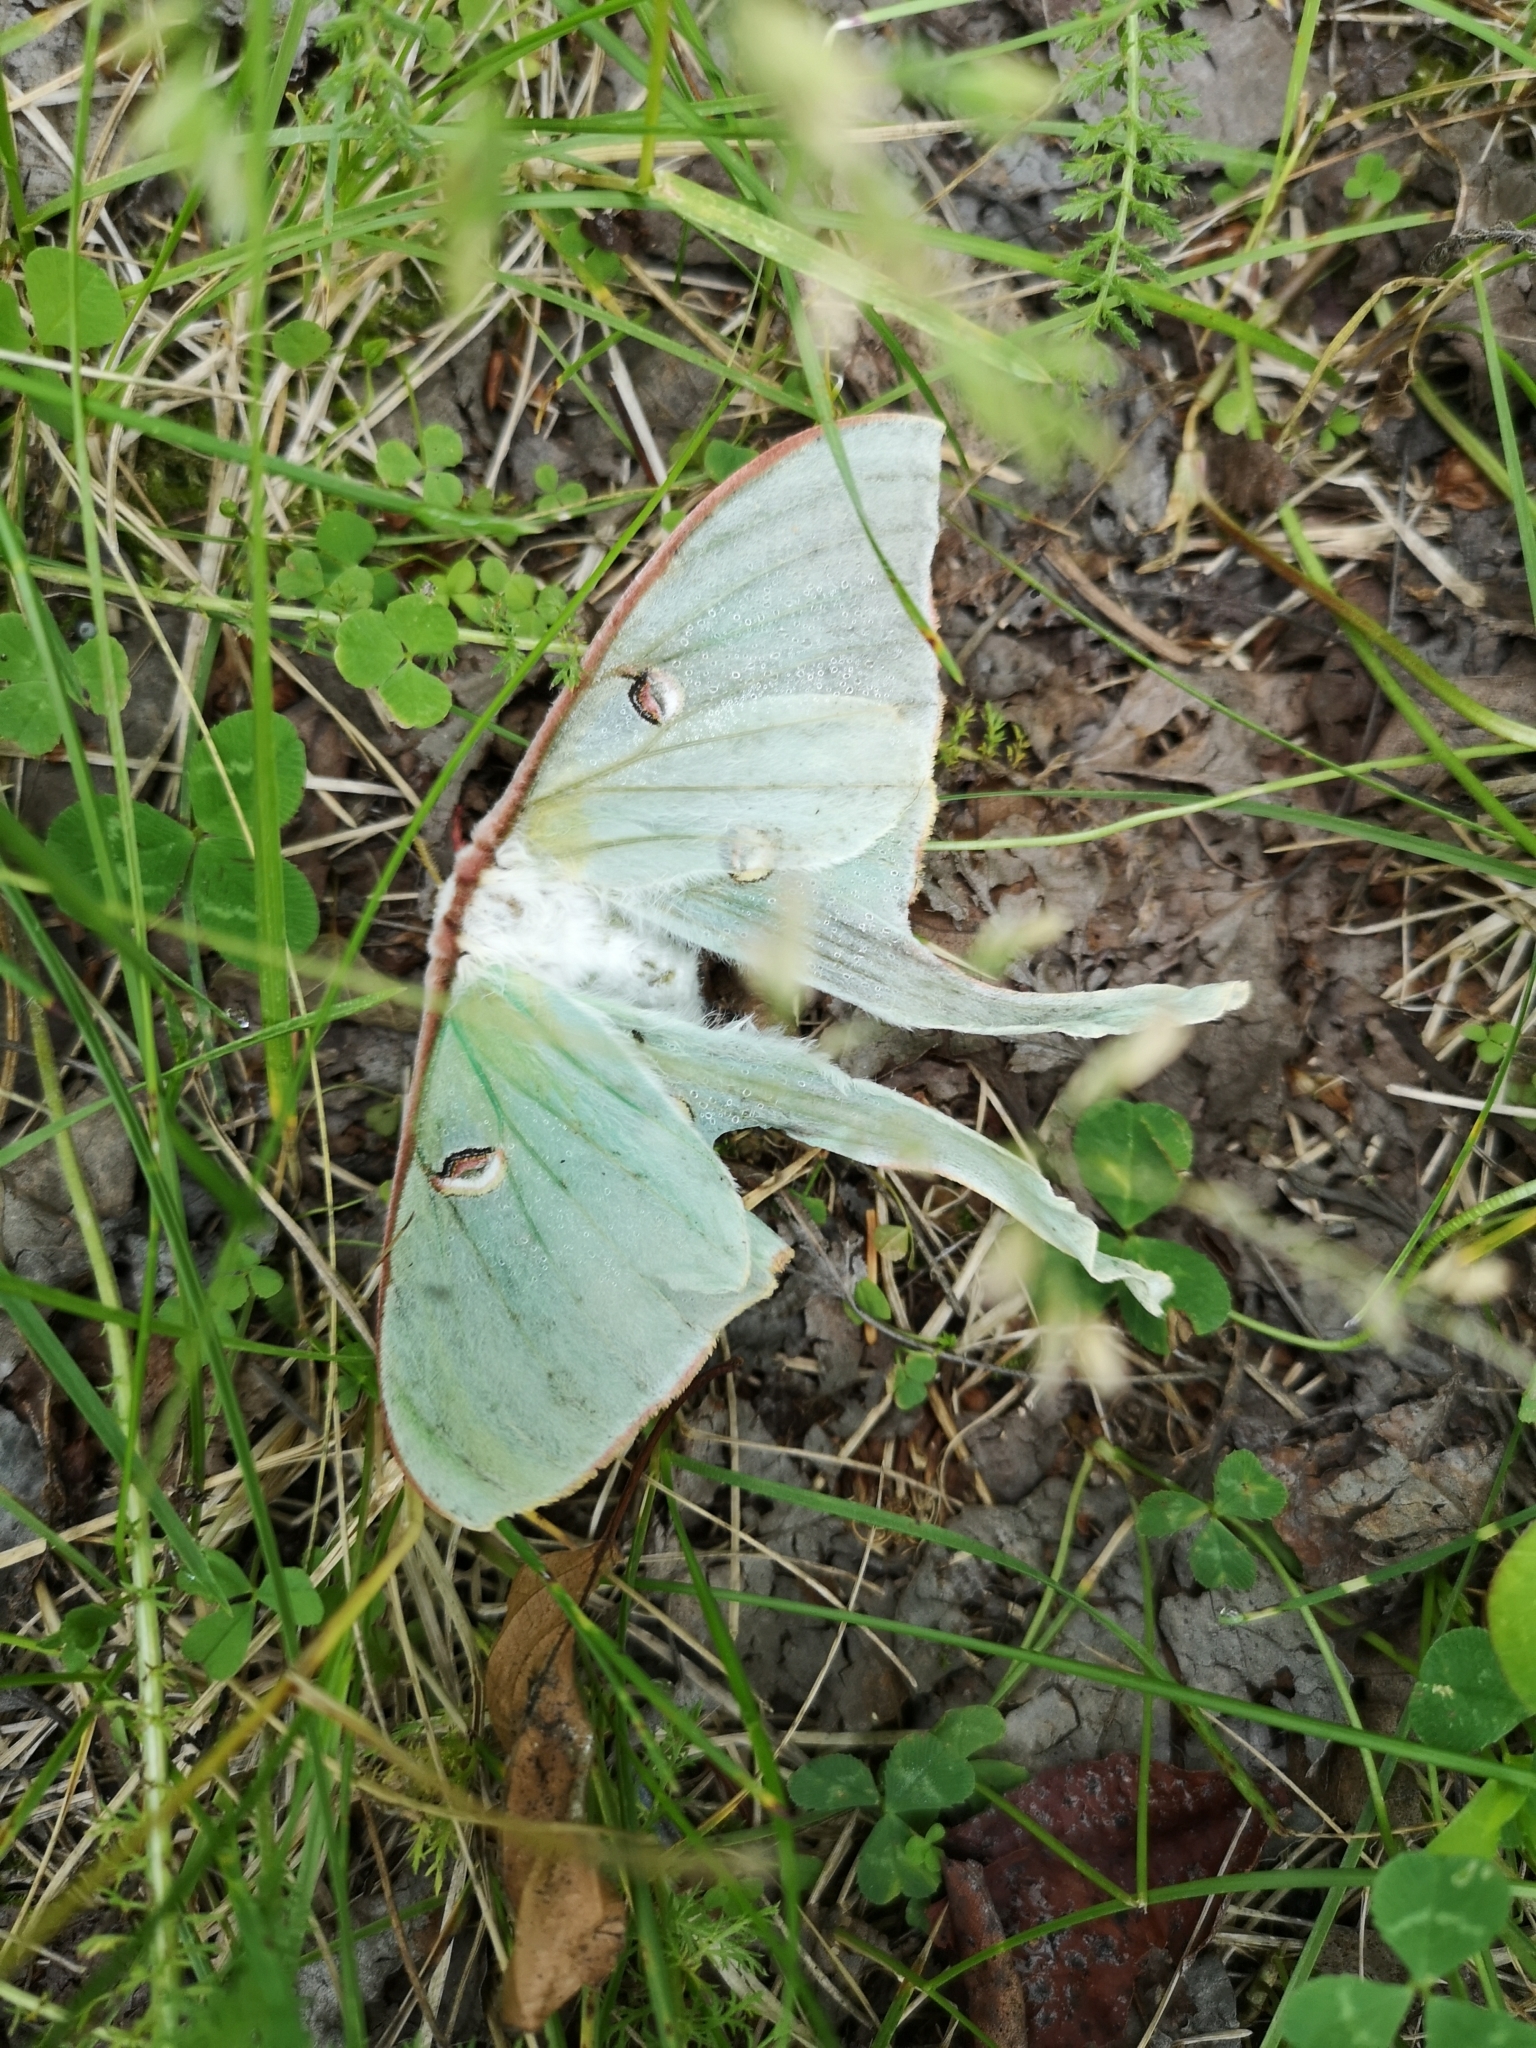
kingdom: Animalia
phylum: Arthropoda
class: Insecta
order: Lepidoptera
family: Saturniidae
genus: Actias
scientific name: Actias luna
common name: Luna moth
